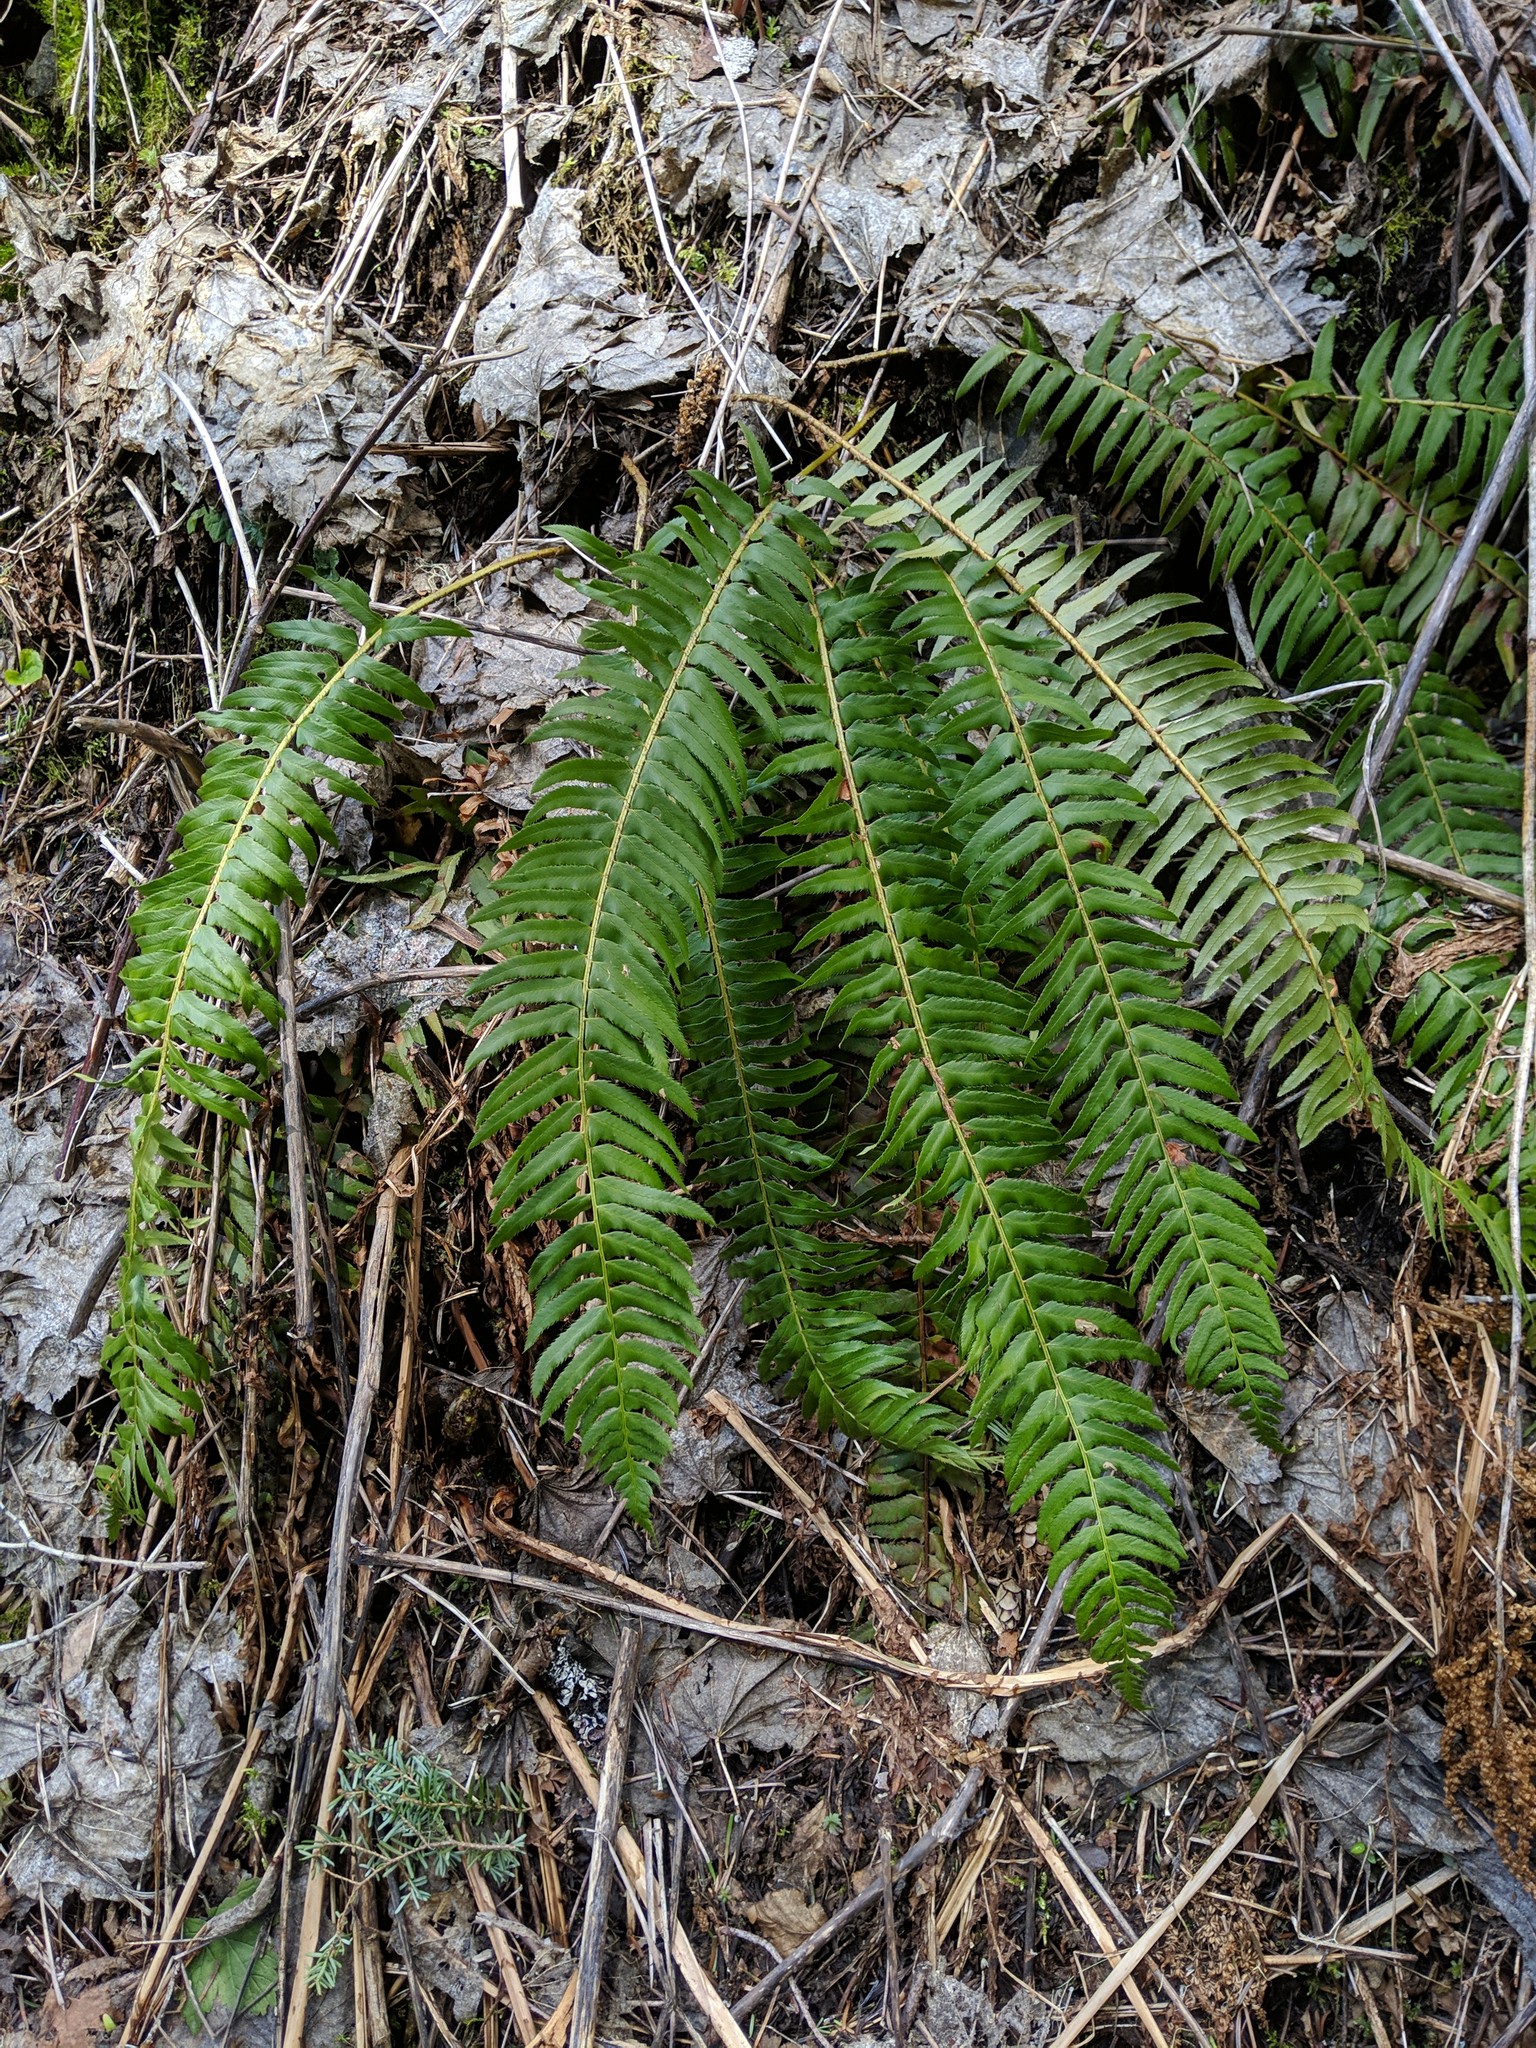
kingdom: Plantae
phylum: Tracheophyta
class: Polypodiopsida
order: Polypodiales
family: Dryopteridaceae
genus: Polystichum
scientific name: Polystichum munitum
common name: Western sword-fern
